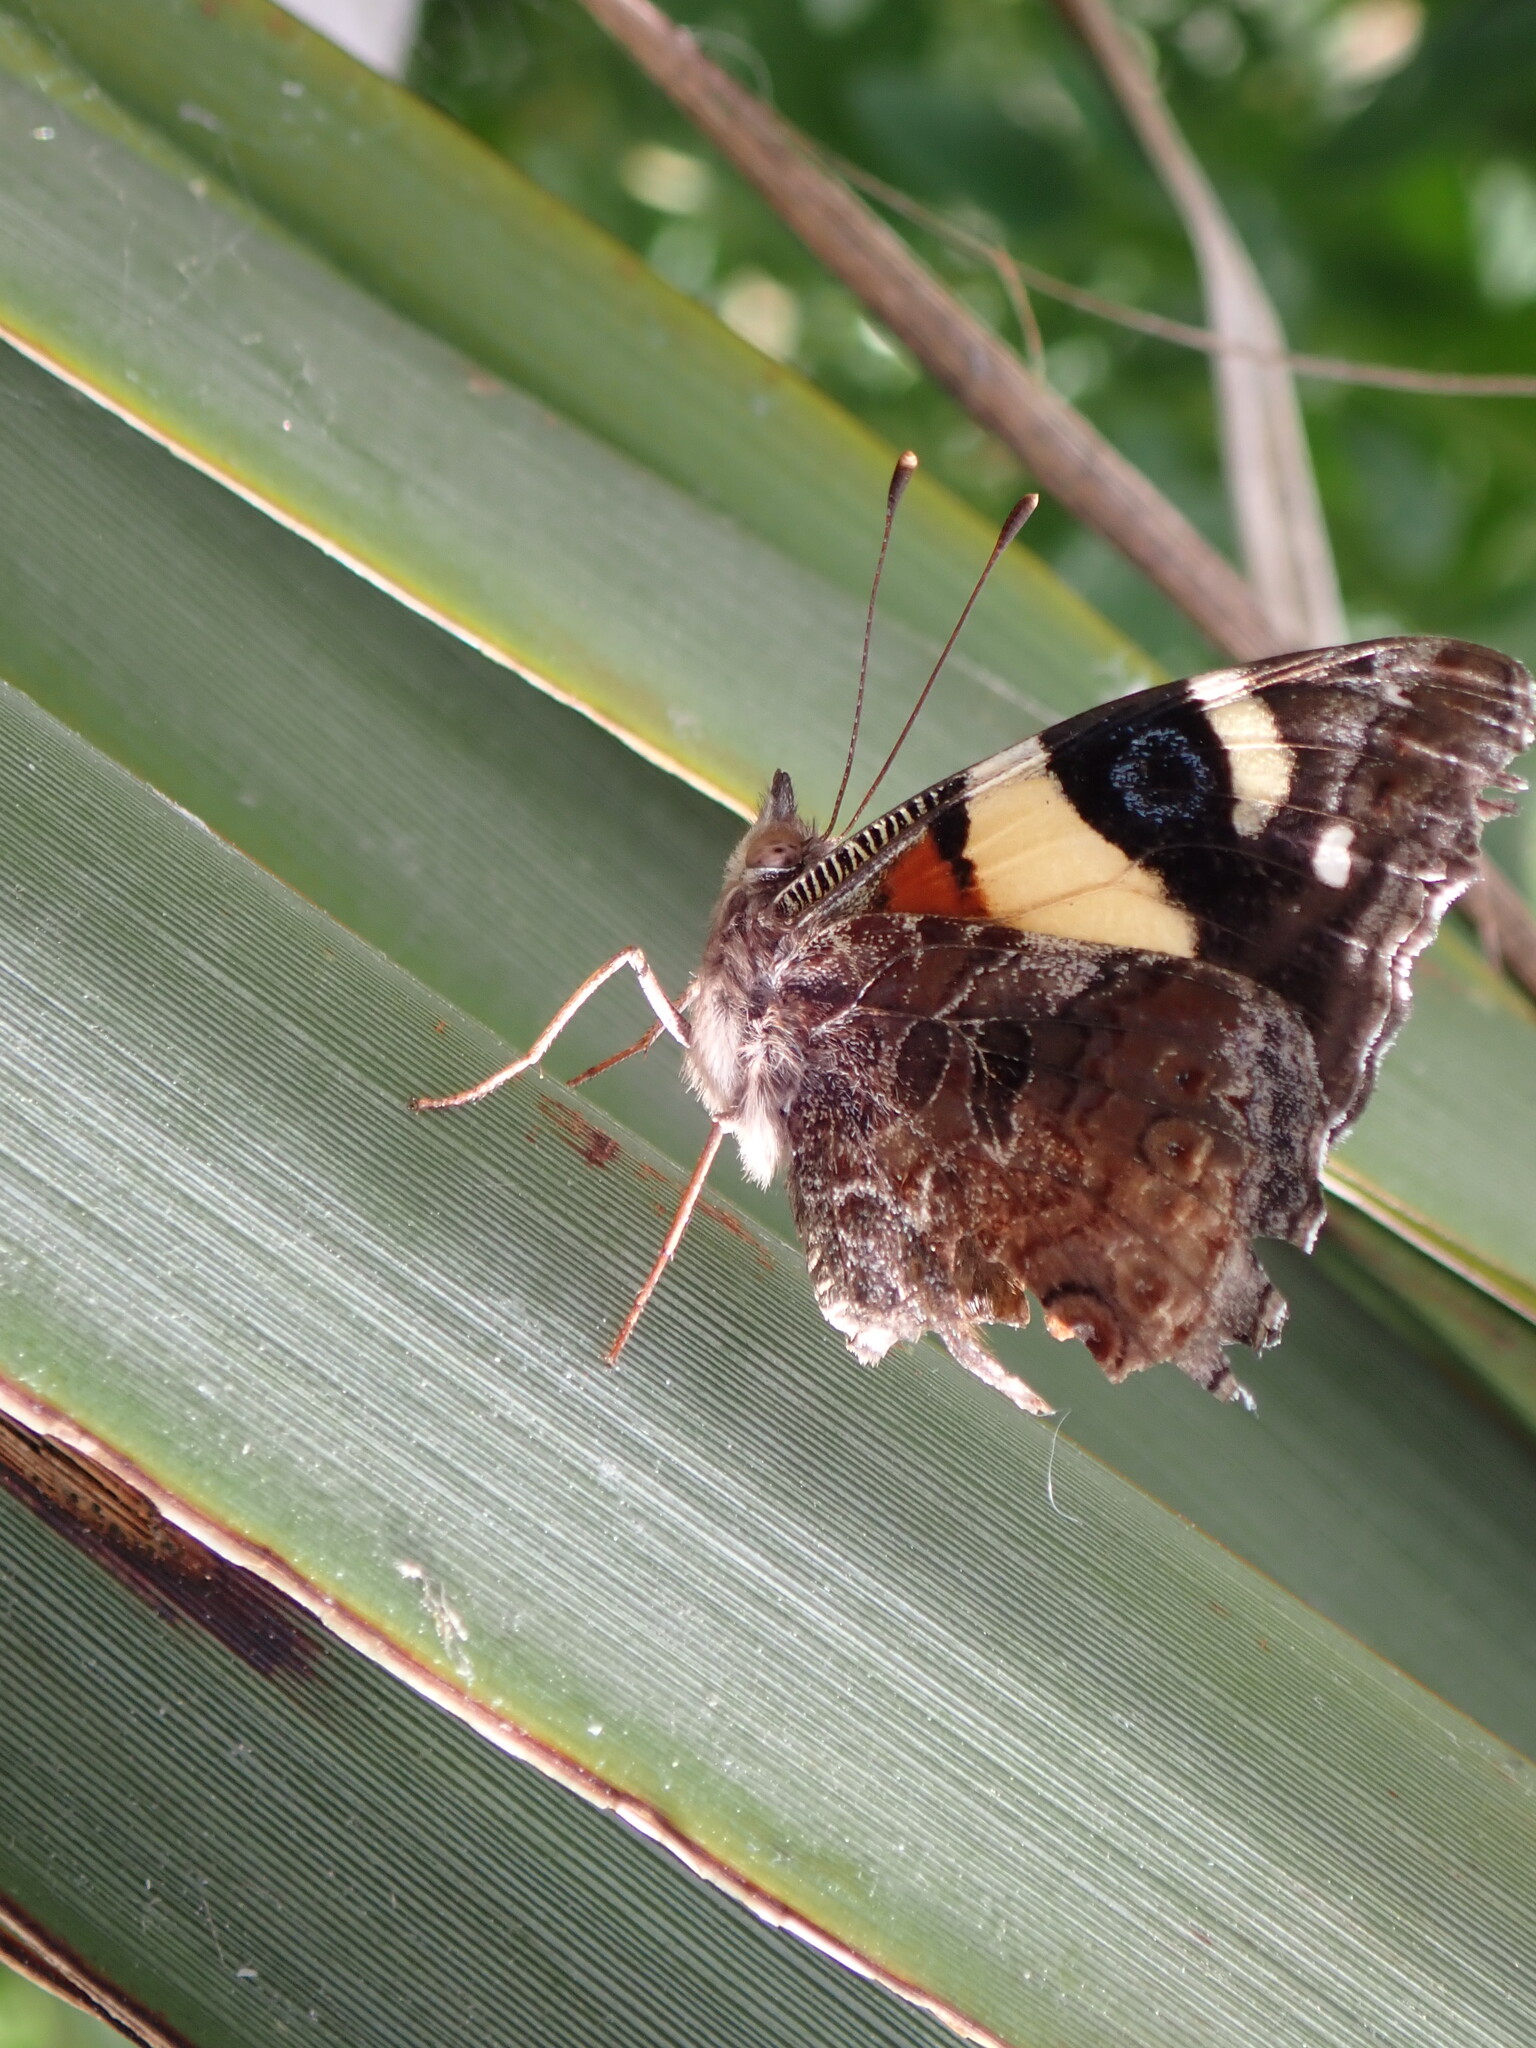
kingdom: Animalia
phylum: Arthropoda
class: Insecta
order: Lepidoptera
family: Nymphalidae
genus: Vanessa
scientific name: Vanessa itea
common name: Yellow admiral
